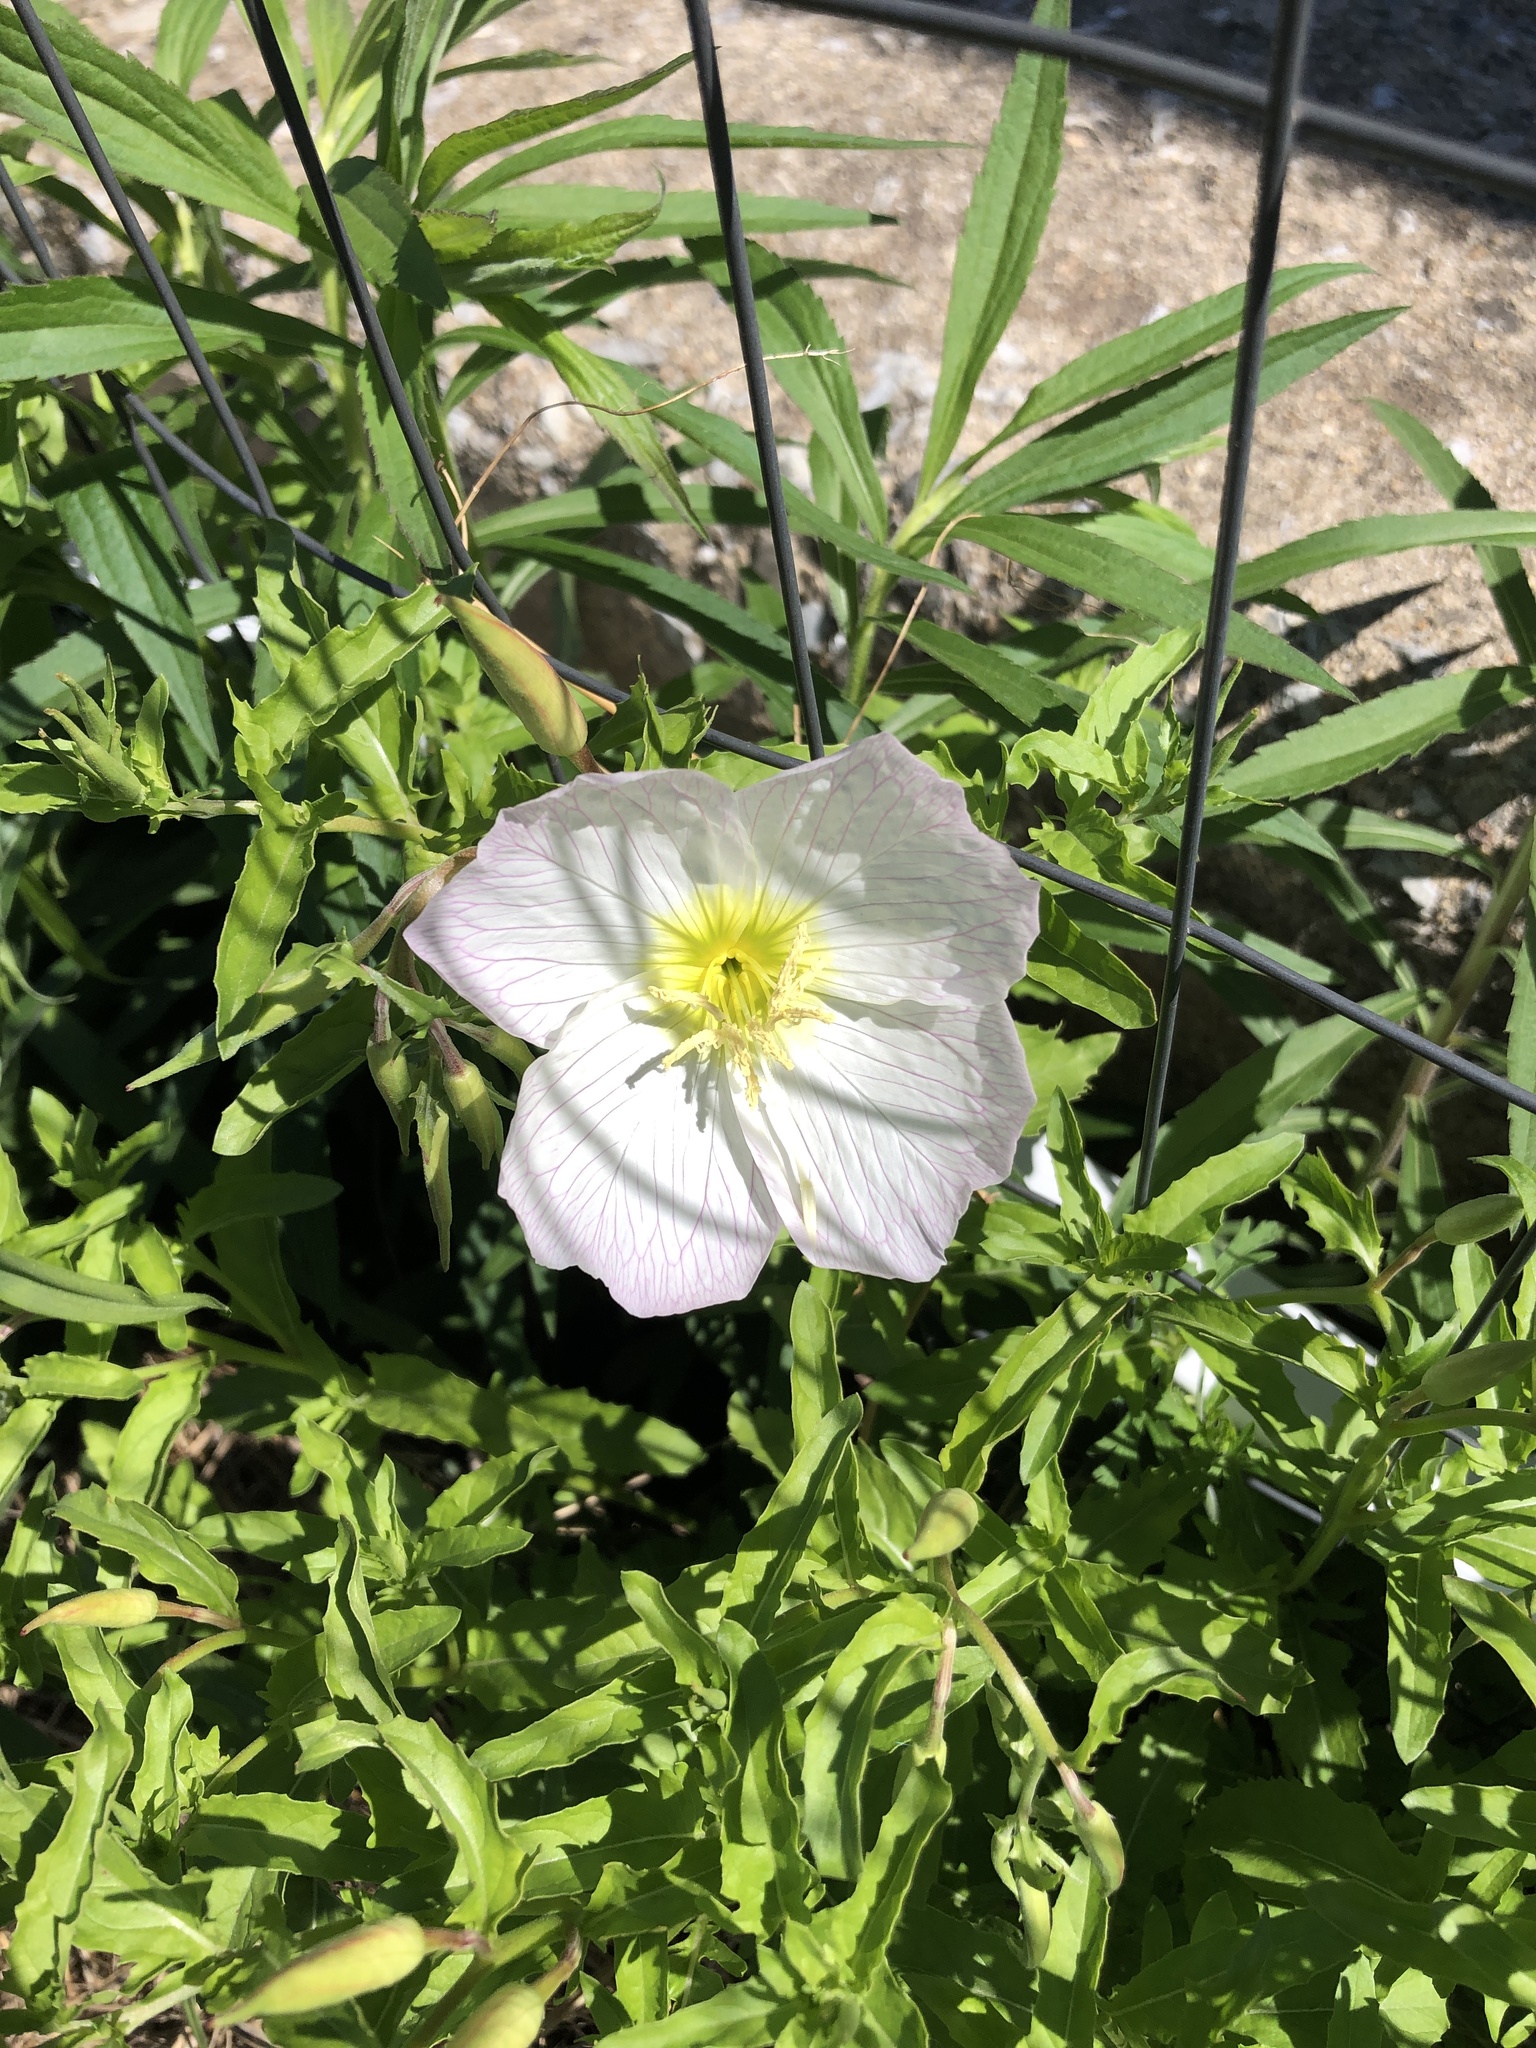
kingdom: Plantae
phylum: Tracheophyta
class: Magnoliopsida
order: Myrtales
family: Onagraceae
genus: Oenothera
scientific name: Oenothera speciosa
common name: White evening-primrose
